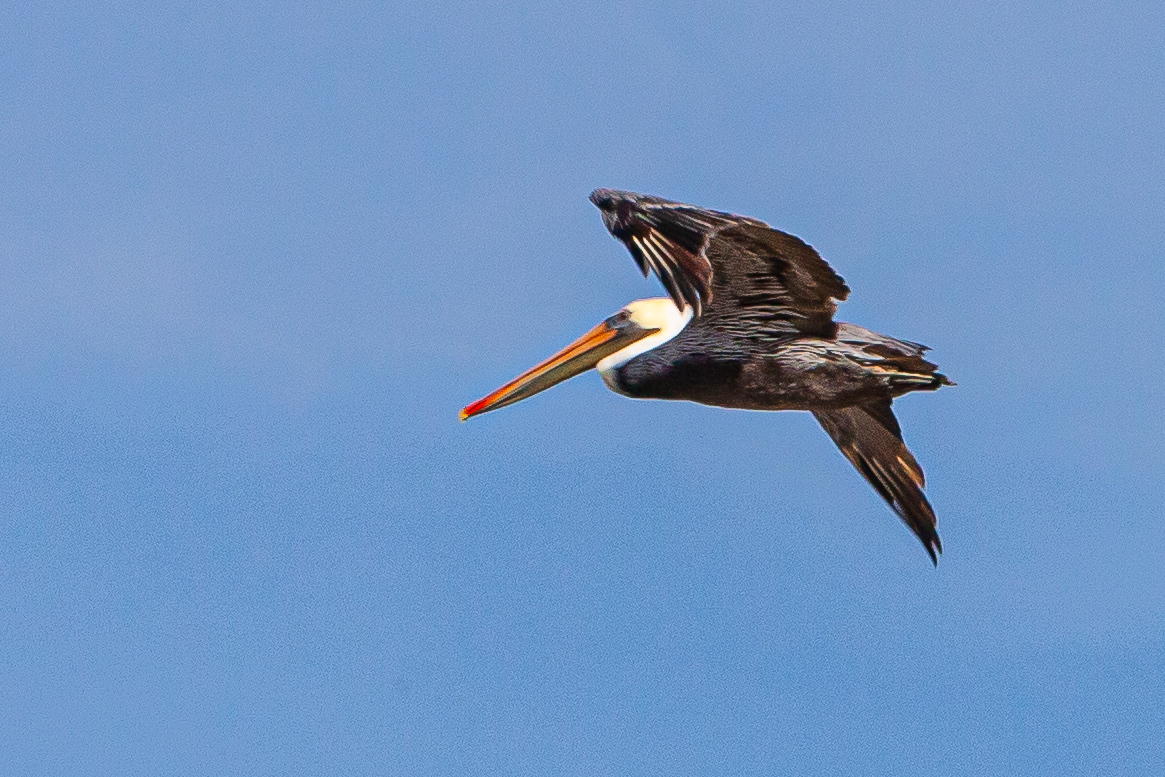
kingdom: Animalia
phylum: Chordata
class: Aves
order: Pelecaniformes
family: Pelecanidae
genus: Pelecanus
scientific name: Pelecanus occidentalis
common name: Brown pelican
